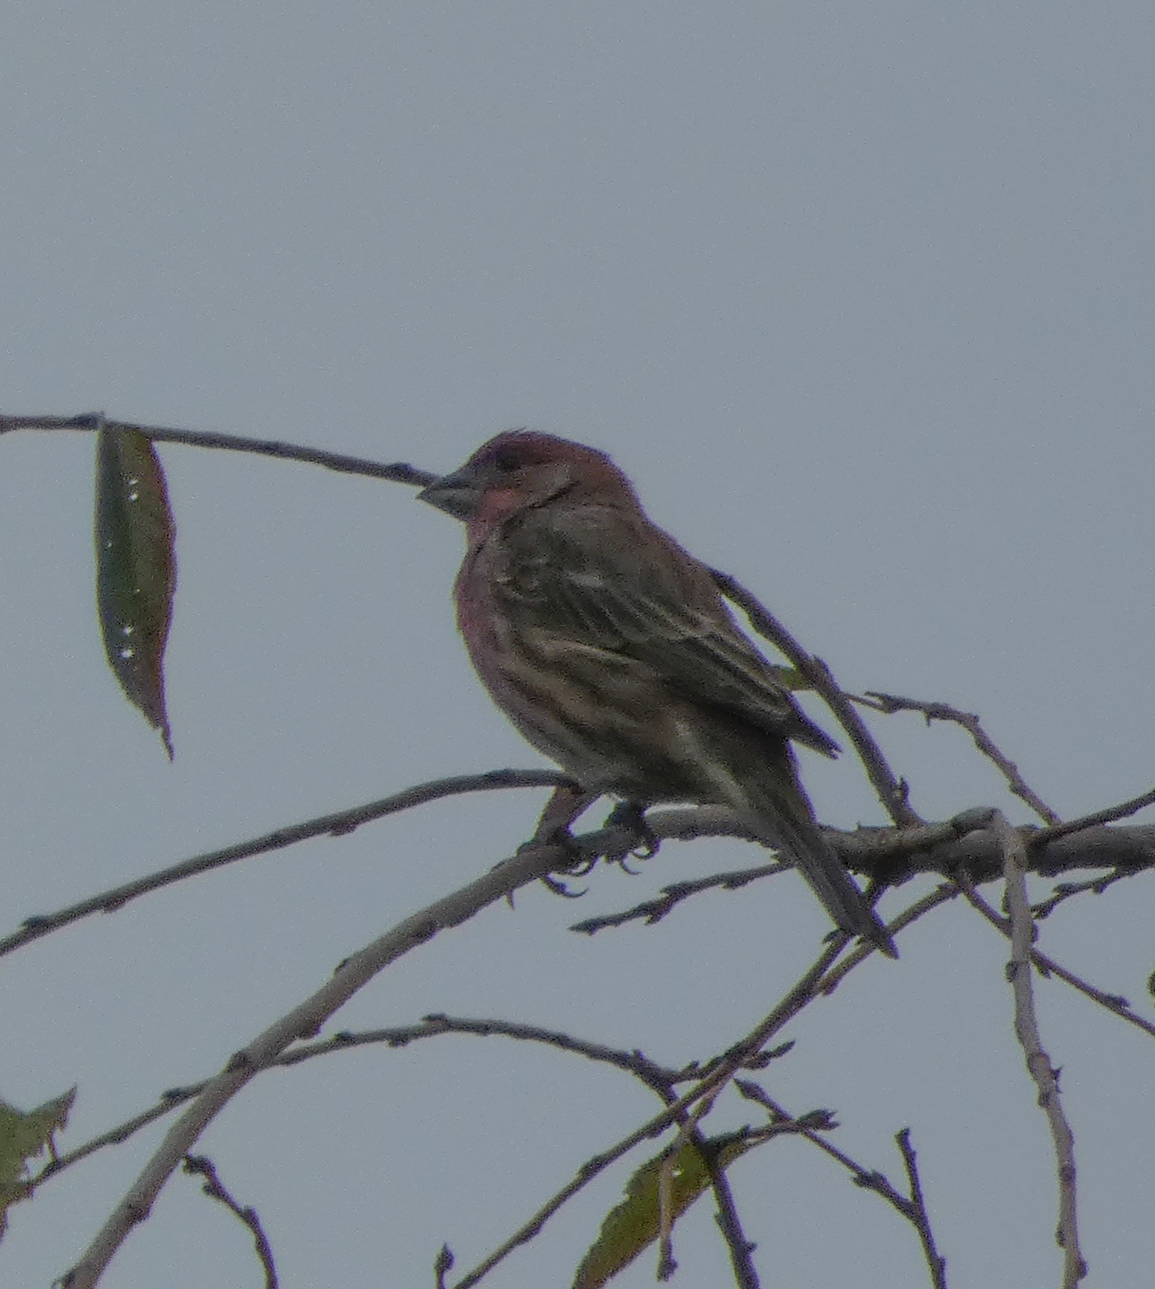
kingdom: Animalia
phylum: Chordata
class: Aves
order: Passeriformes
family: Fringillidae
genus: Haemorhous
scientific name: Haemorhous mexicanus
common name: House finch
